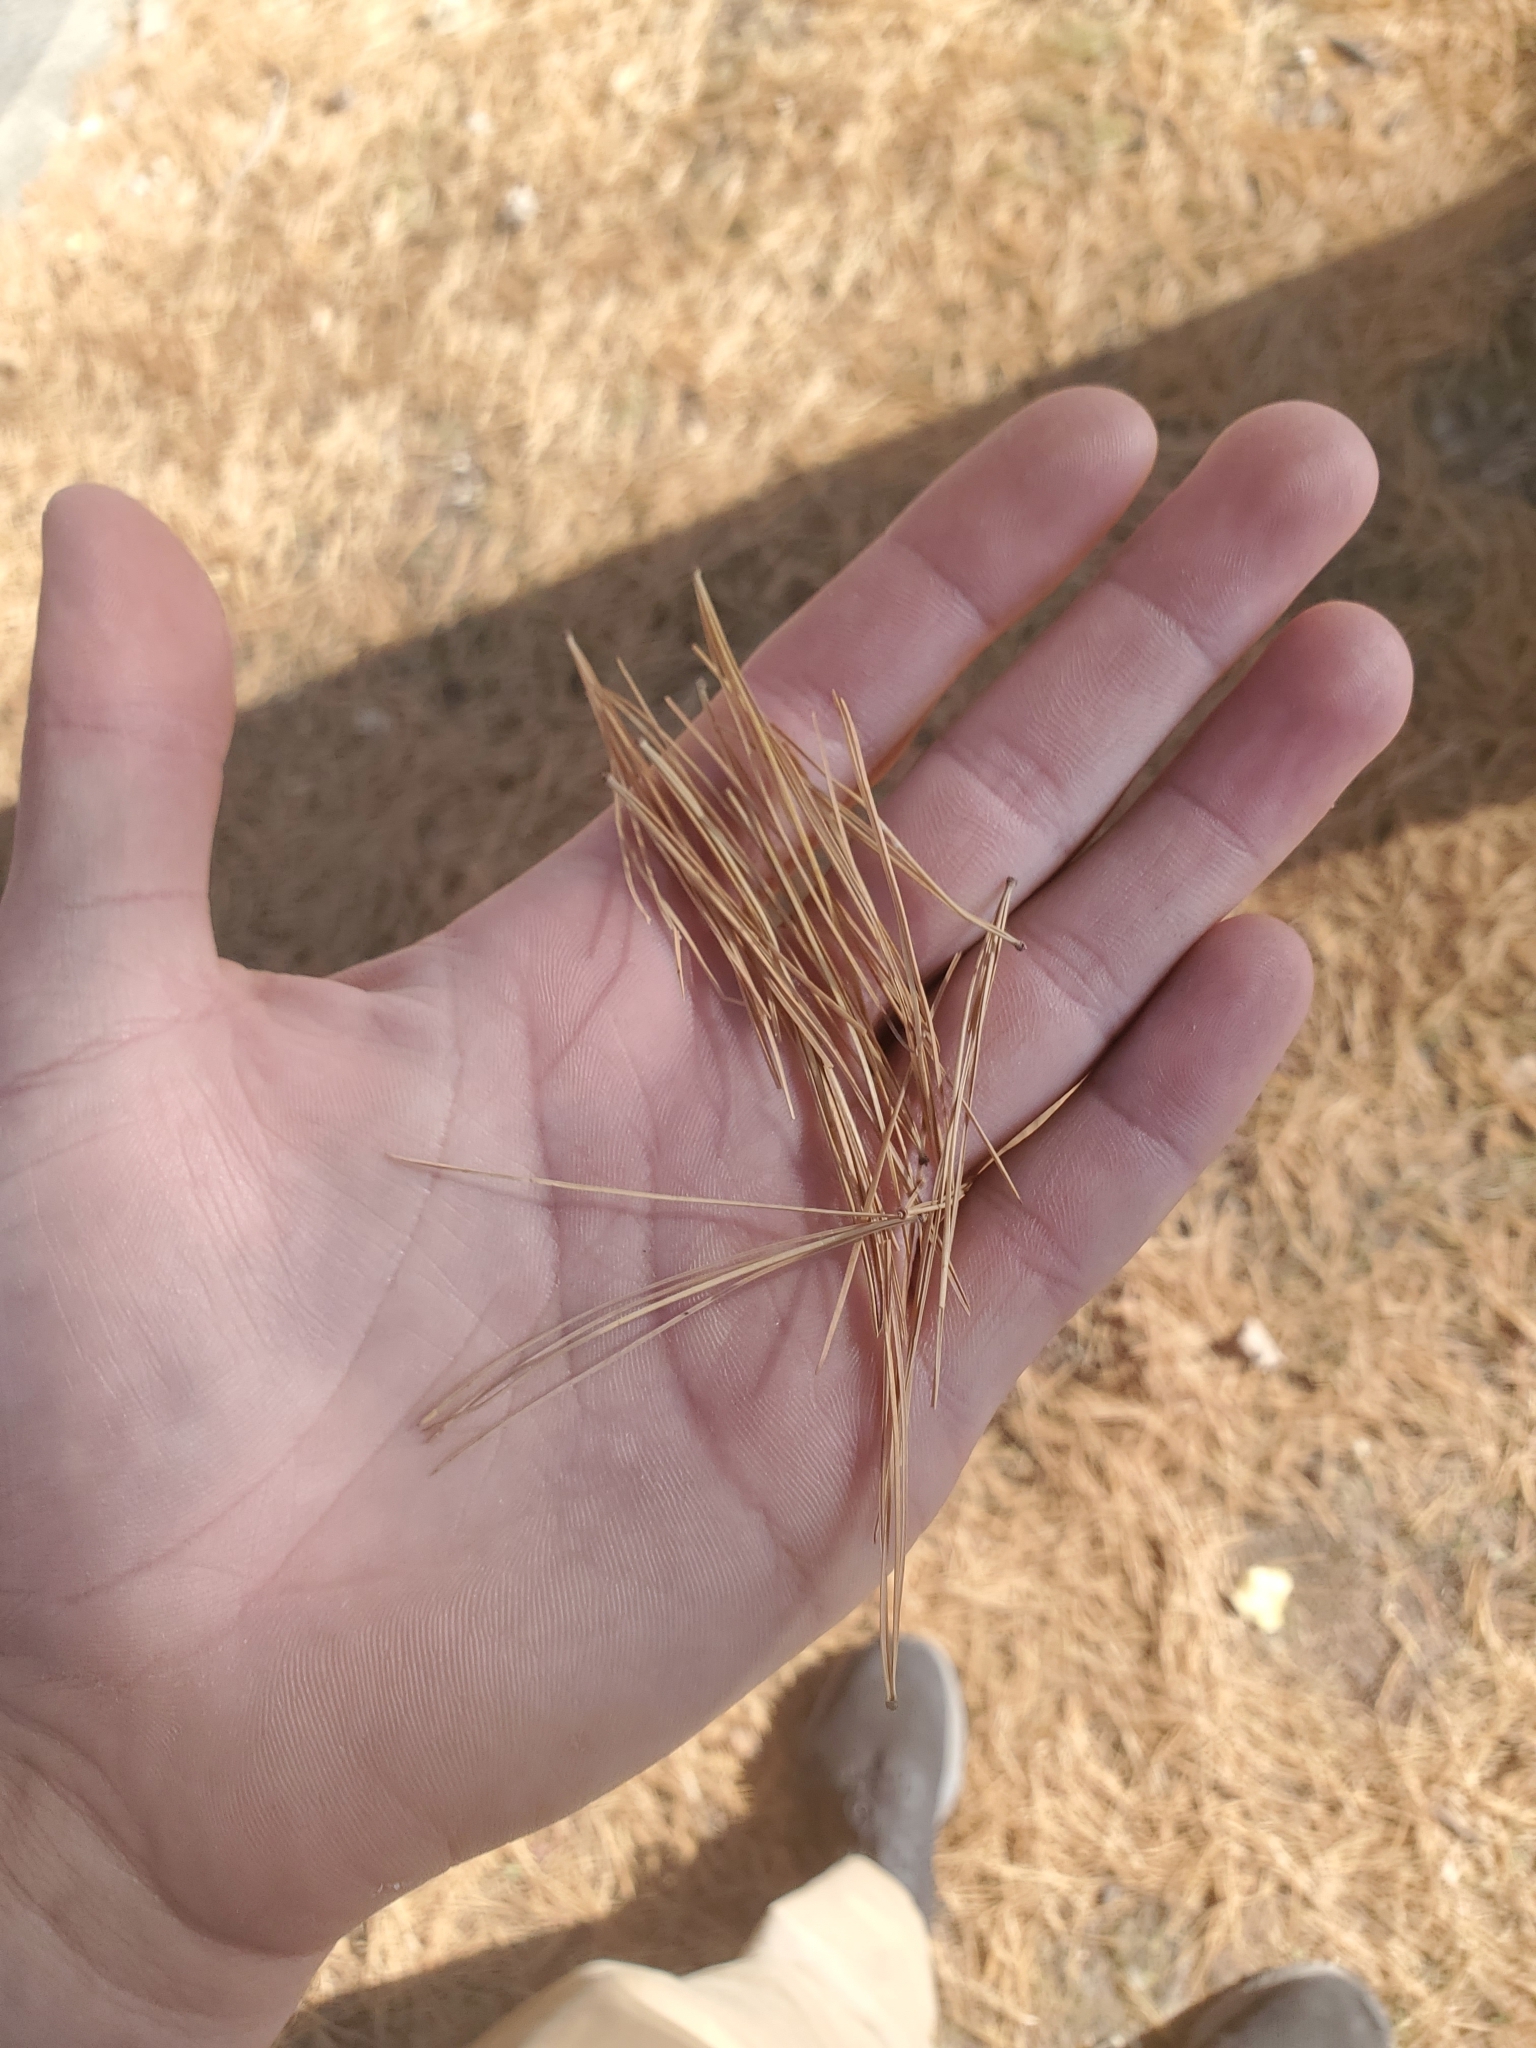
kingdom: Plantae
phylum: Tracheophyta
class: Pinopsida
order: Pinales
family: Pinaceae
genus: Pinus
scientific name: Pinus strobus
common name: Weymouth pine
